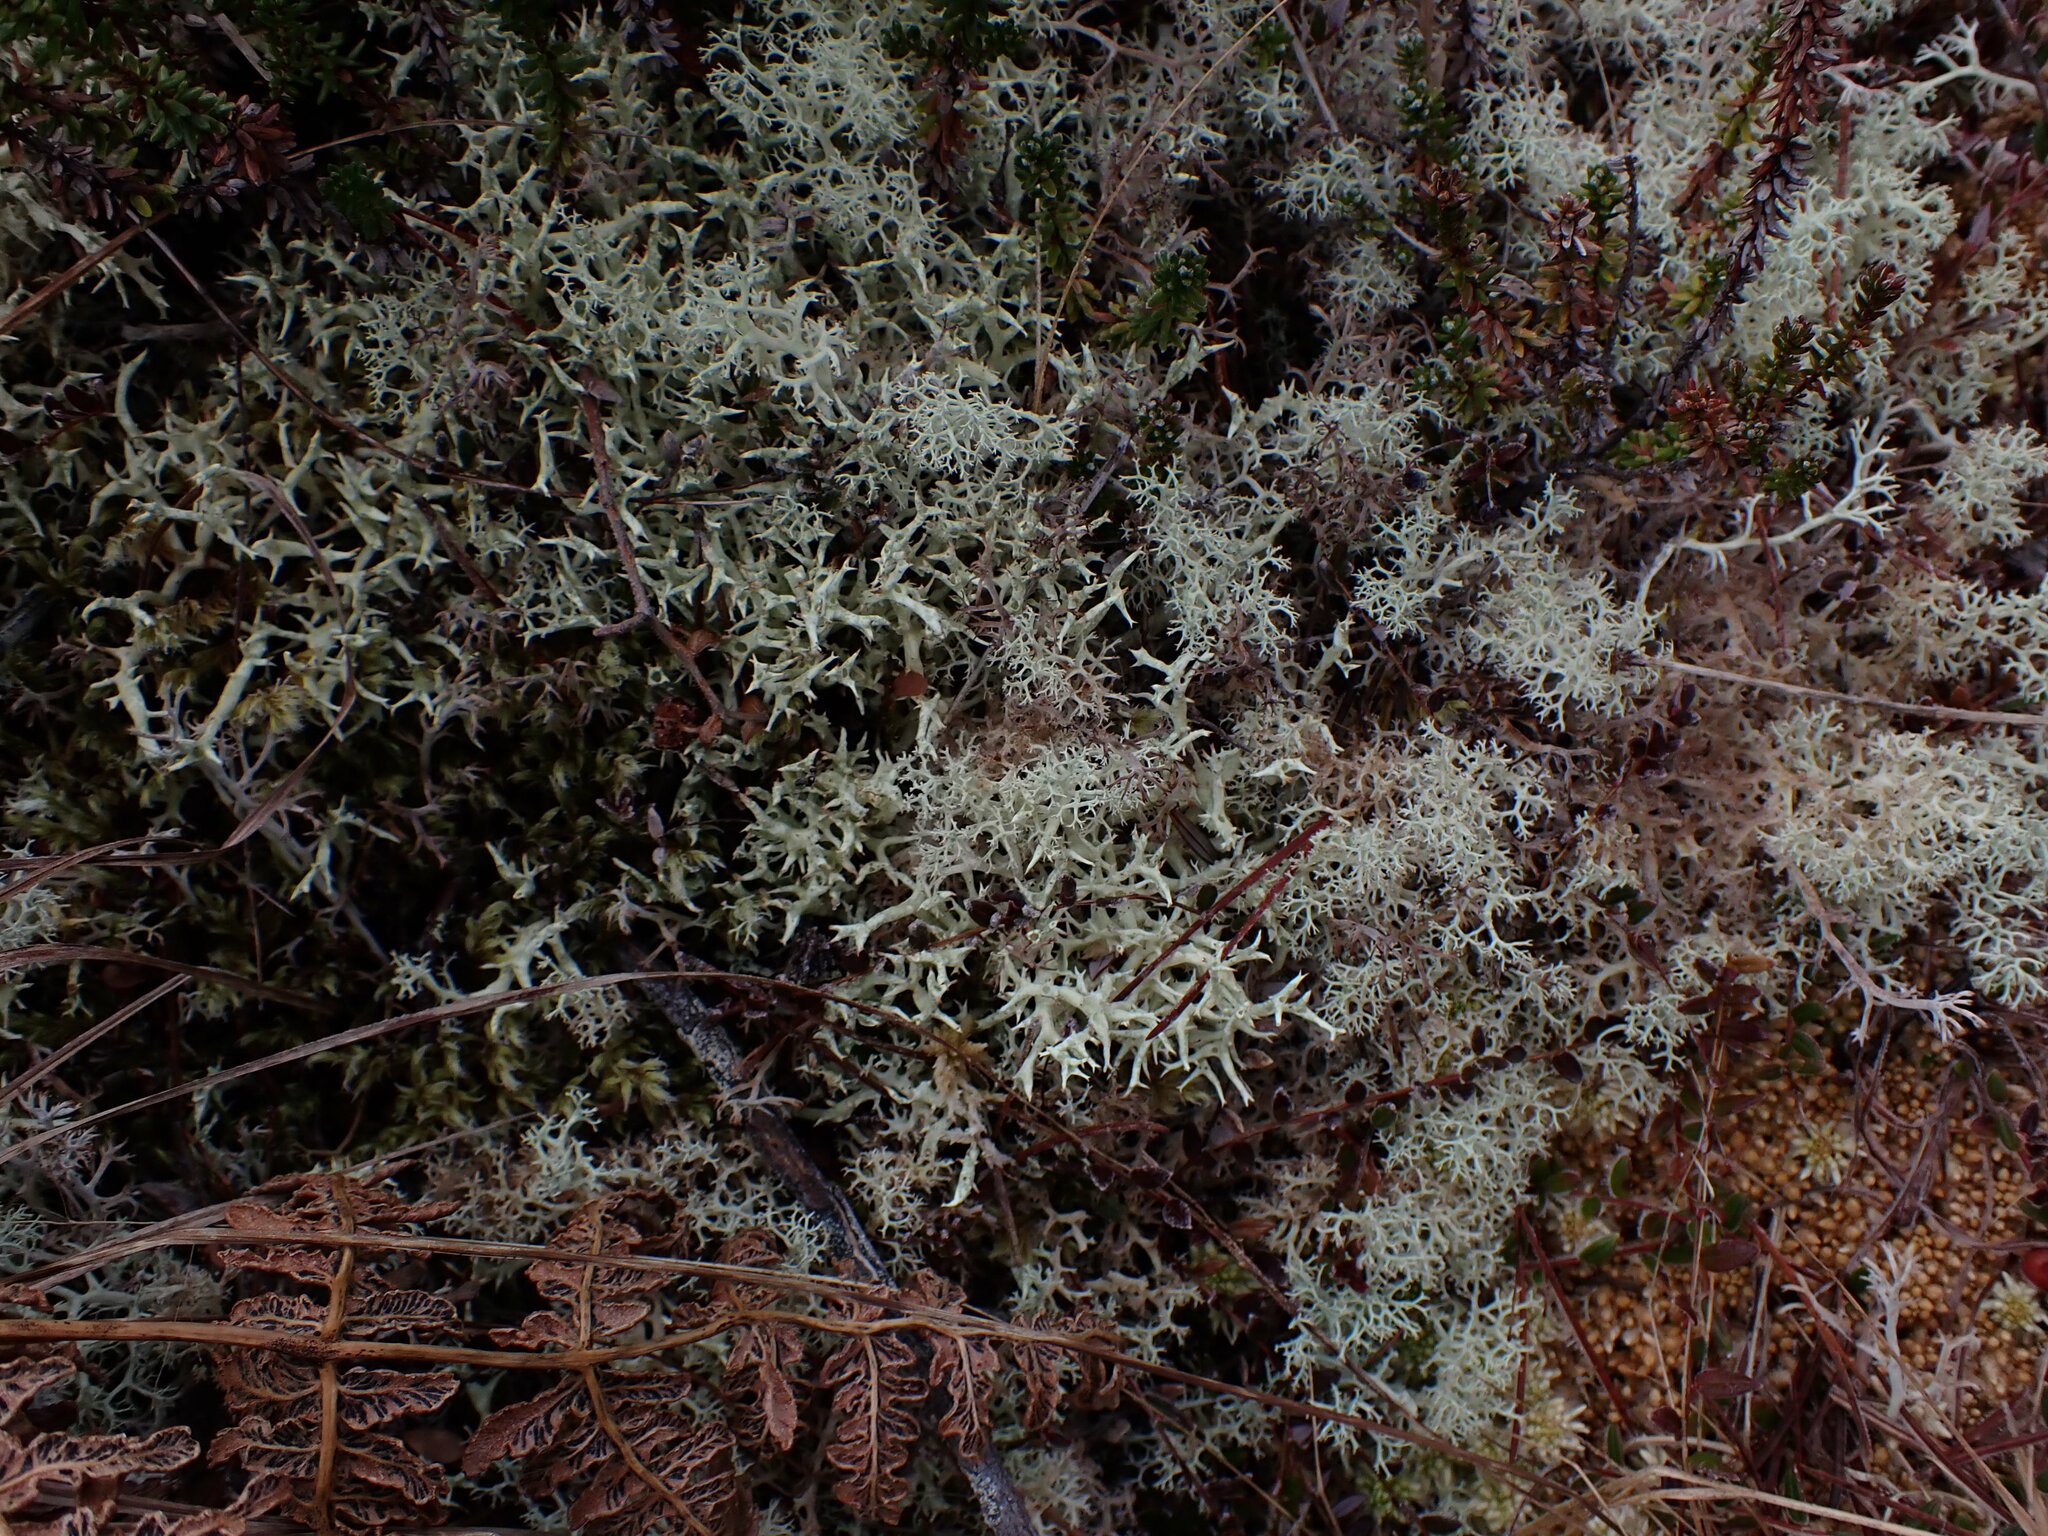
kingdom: Fungi
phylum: Ascomycota
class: Lecanoromycetes
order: Lecanorales
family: Cladoniaceae
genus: Cladonia
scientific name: Cladonia uncialis
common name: Thorn lichen
